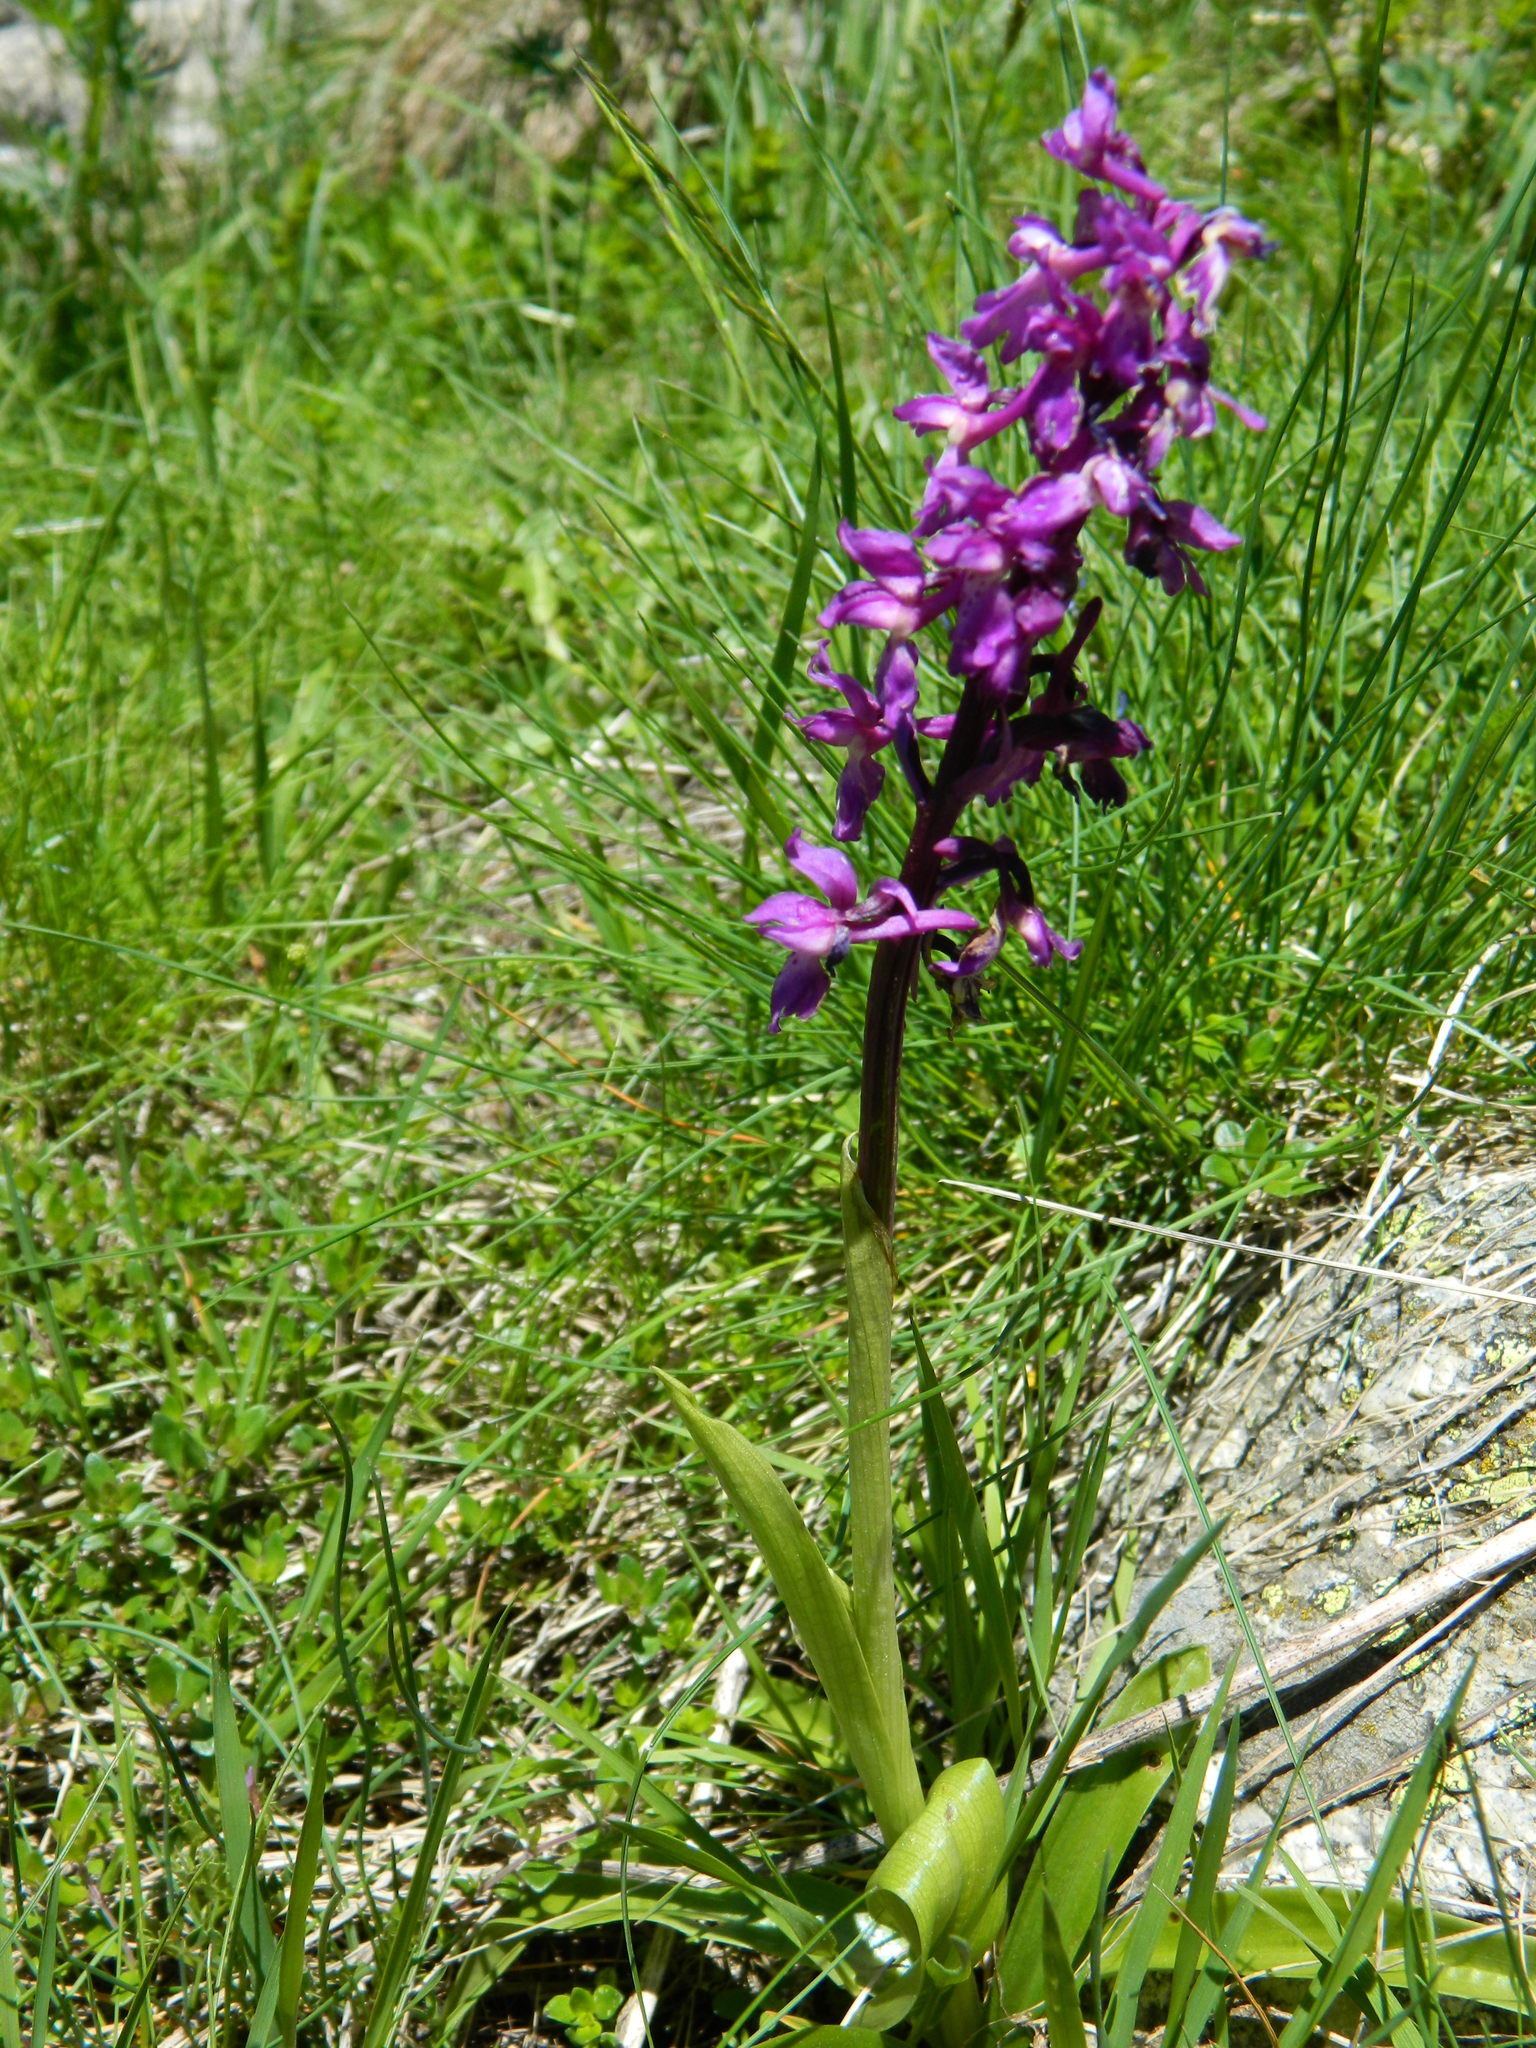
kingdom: Plantae
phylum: Tracheophyta
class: Liliopsida
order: Asparagales
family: Orchidaceae
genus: Orchis
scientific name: Orchis mascula
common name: Early-purple orchid
